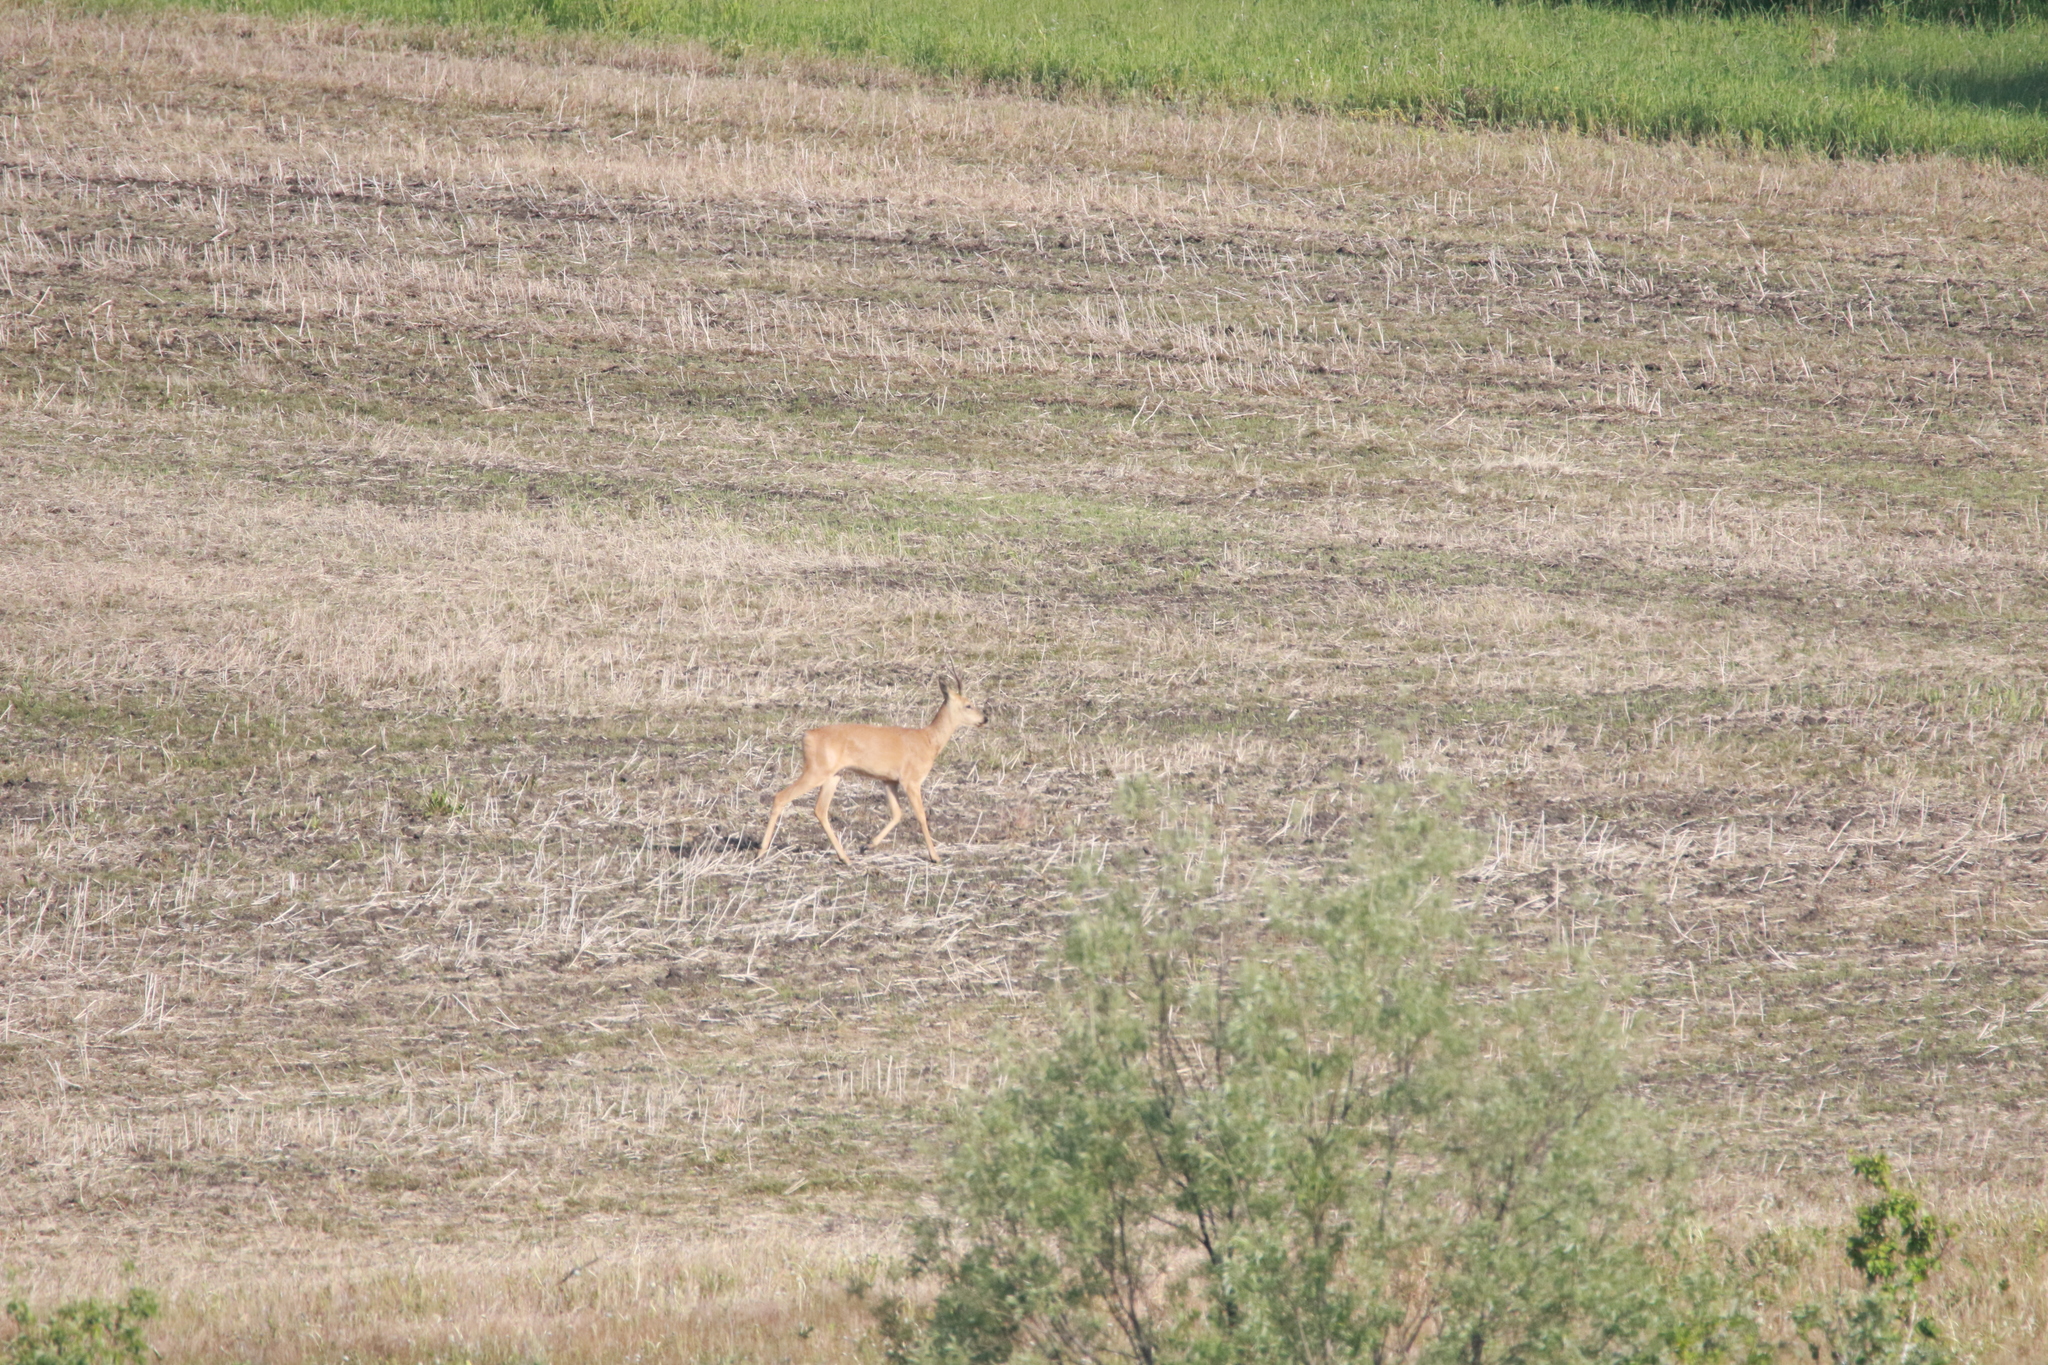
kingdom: Animalia
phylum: Chordata
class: Mammalia
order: Artiodactyla
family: Cervidae
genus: Capreolus
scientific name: Capreolus pygargus
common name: Siberian roe
